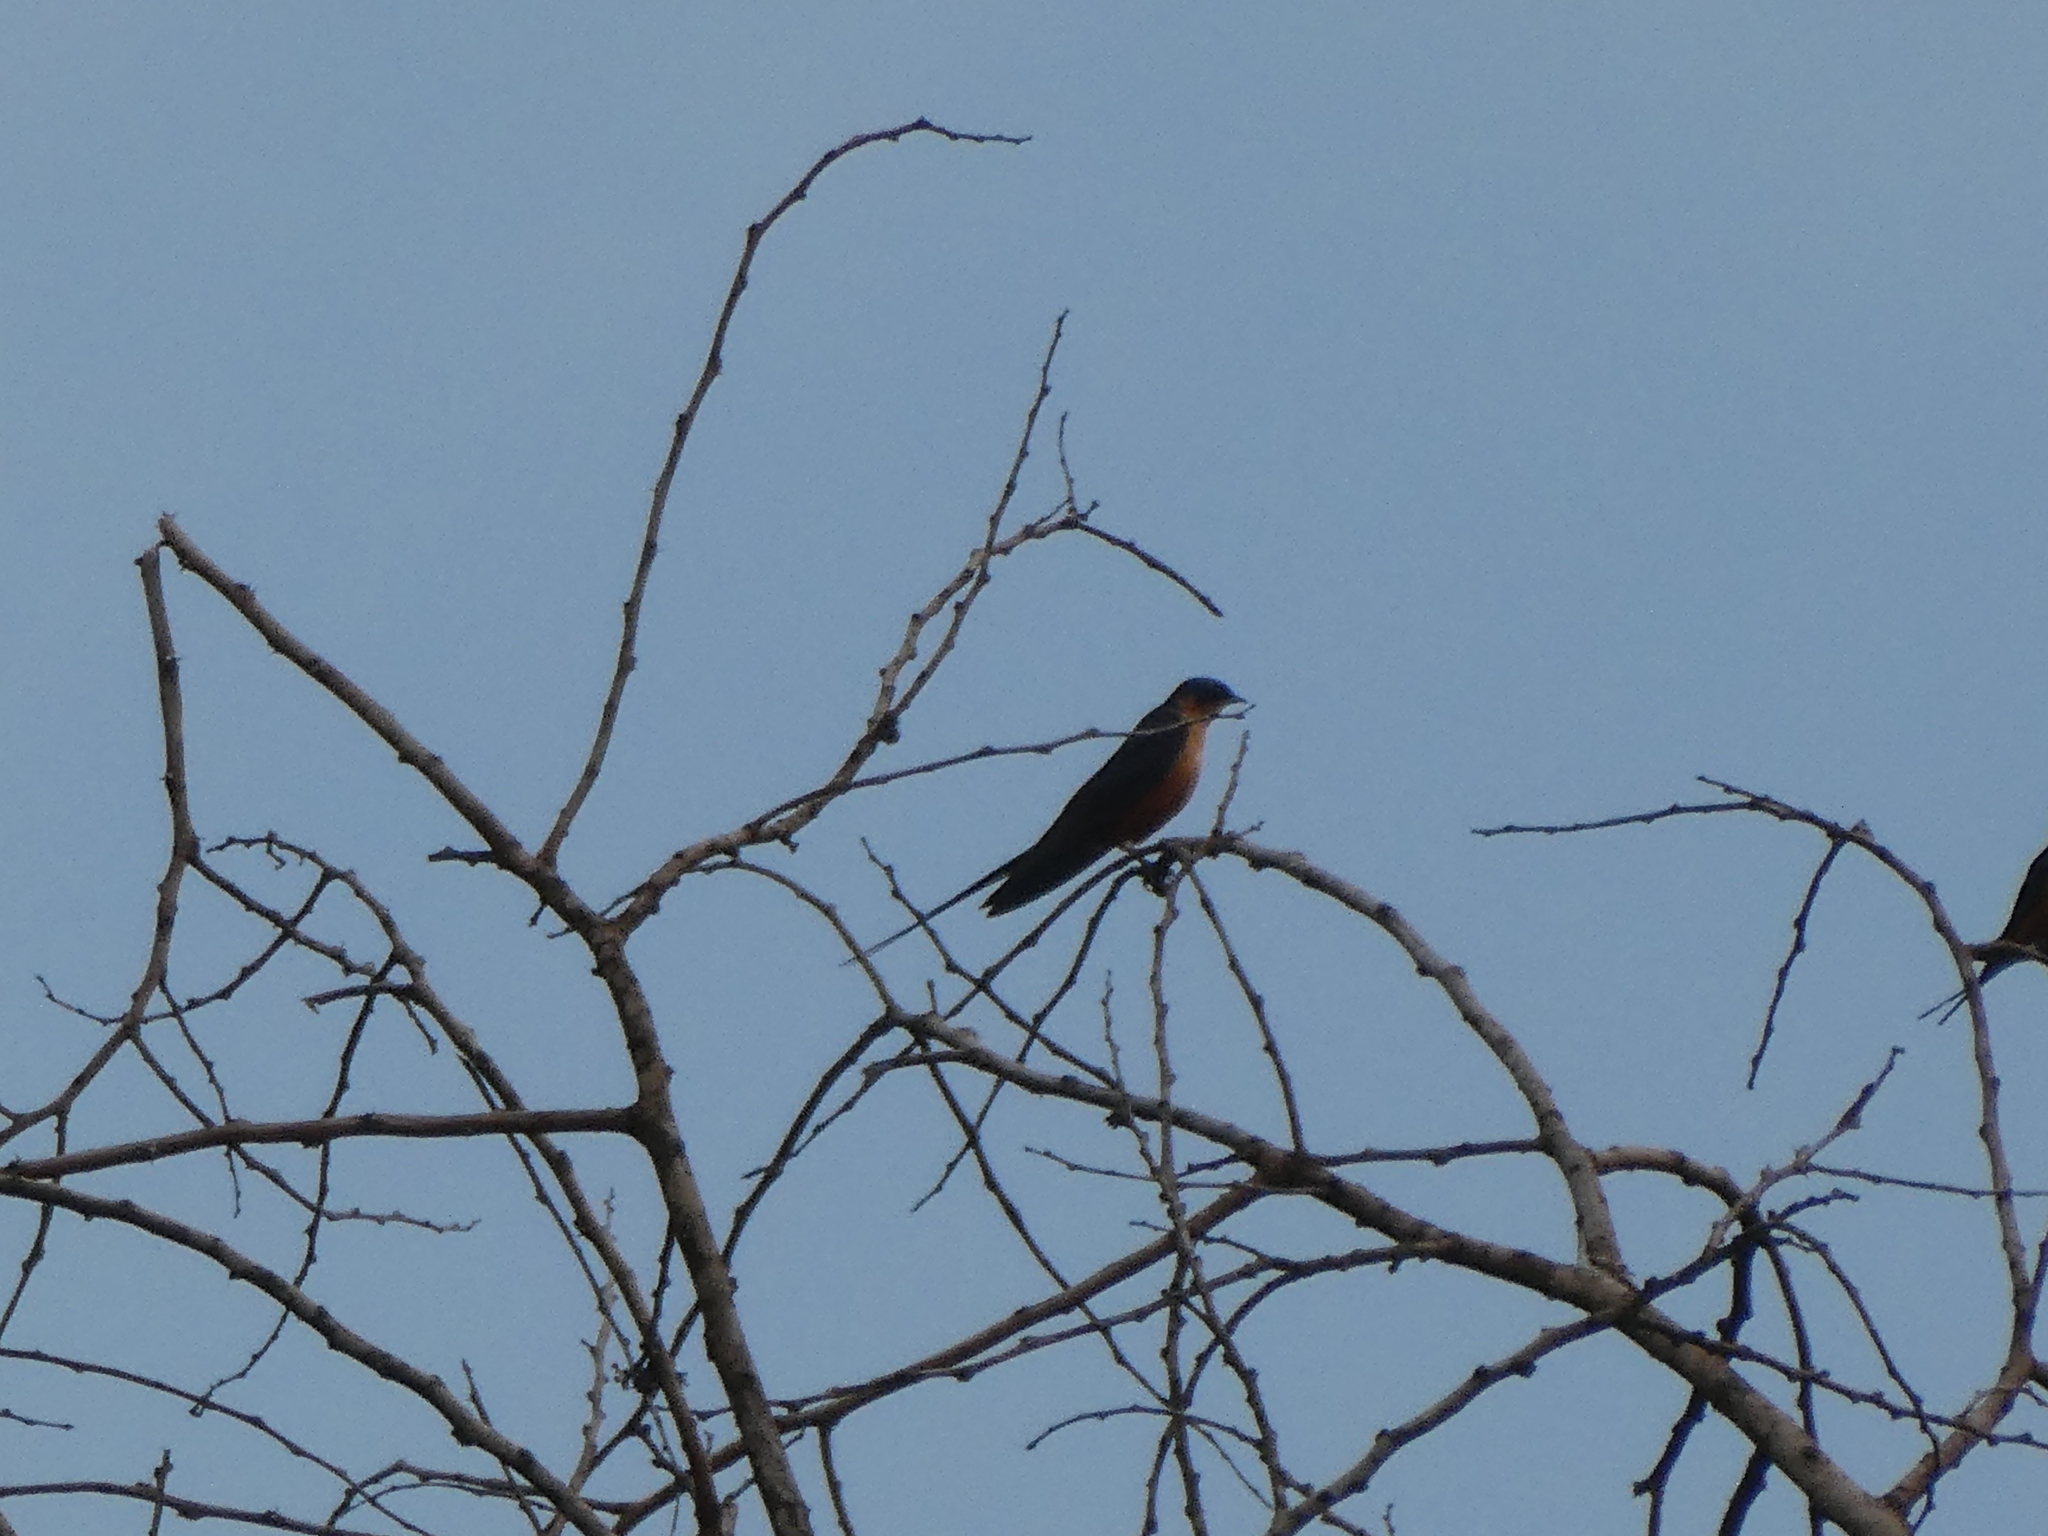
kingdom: Animalia
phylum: Chordata
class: Aves
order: Passeriformes
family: Hirundinidae
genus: Cecropis
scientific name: Cecropis semirufa
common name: Red-breasted swallow
